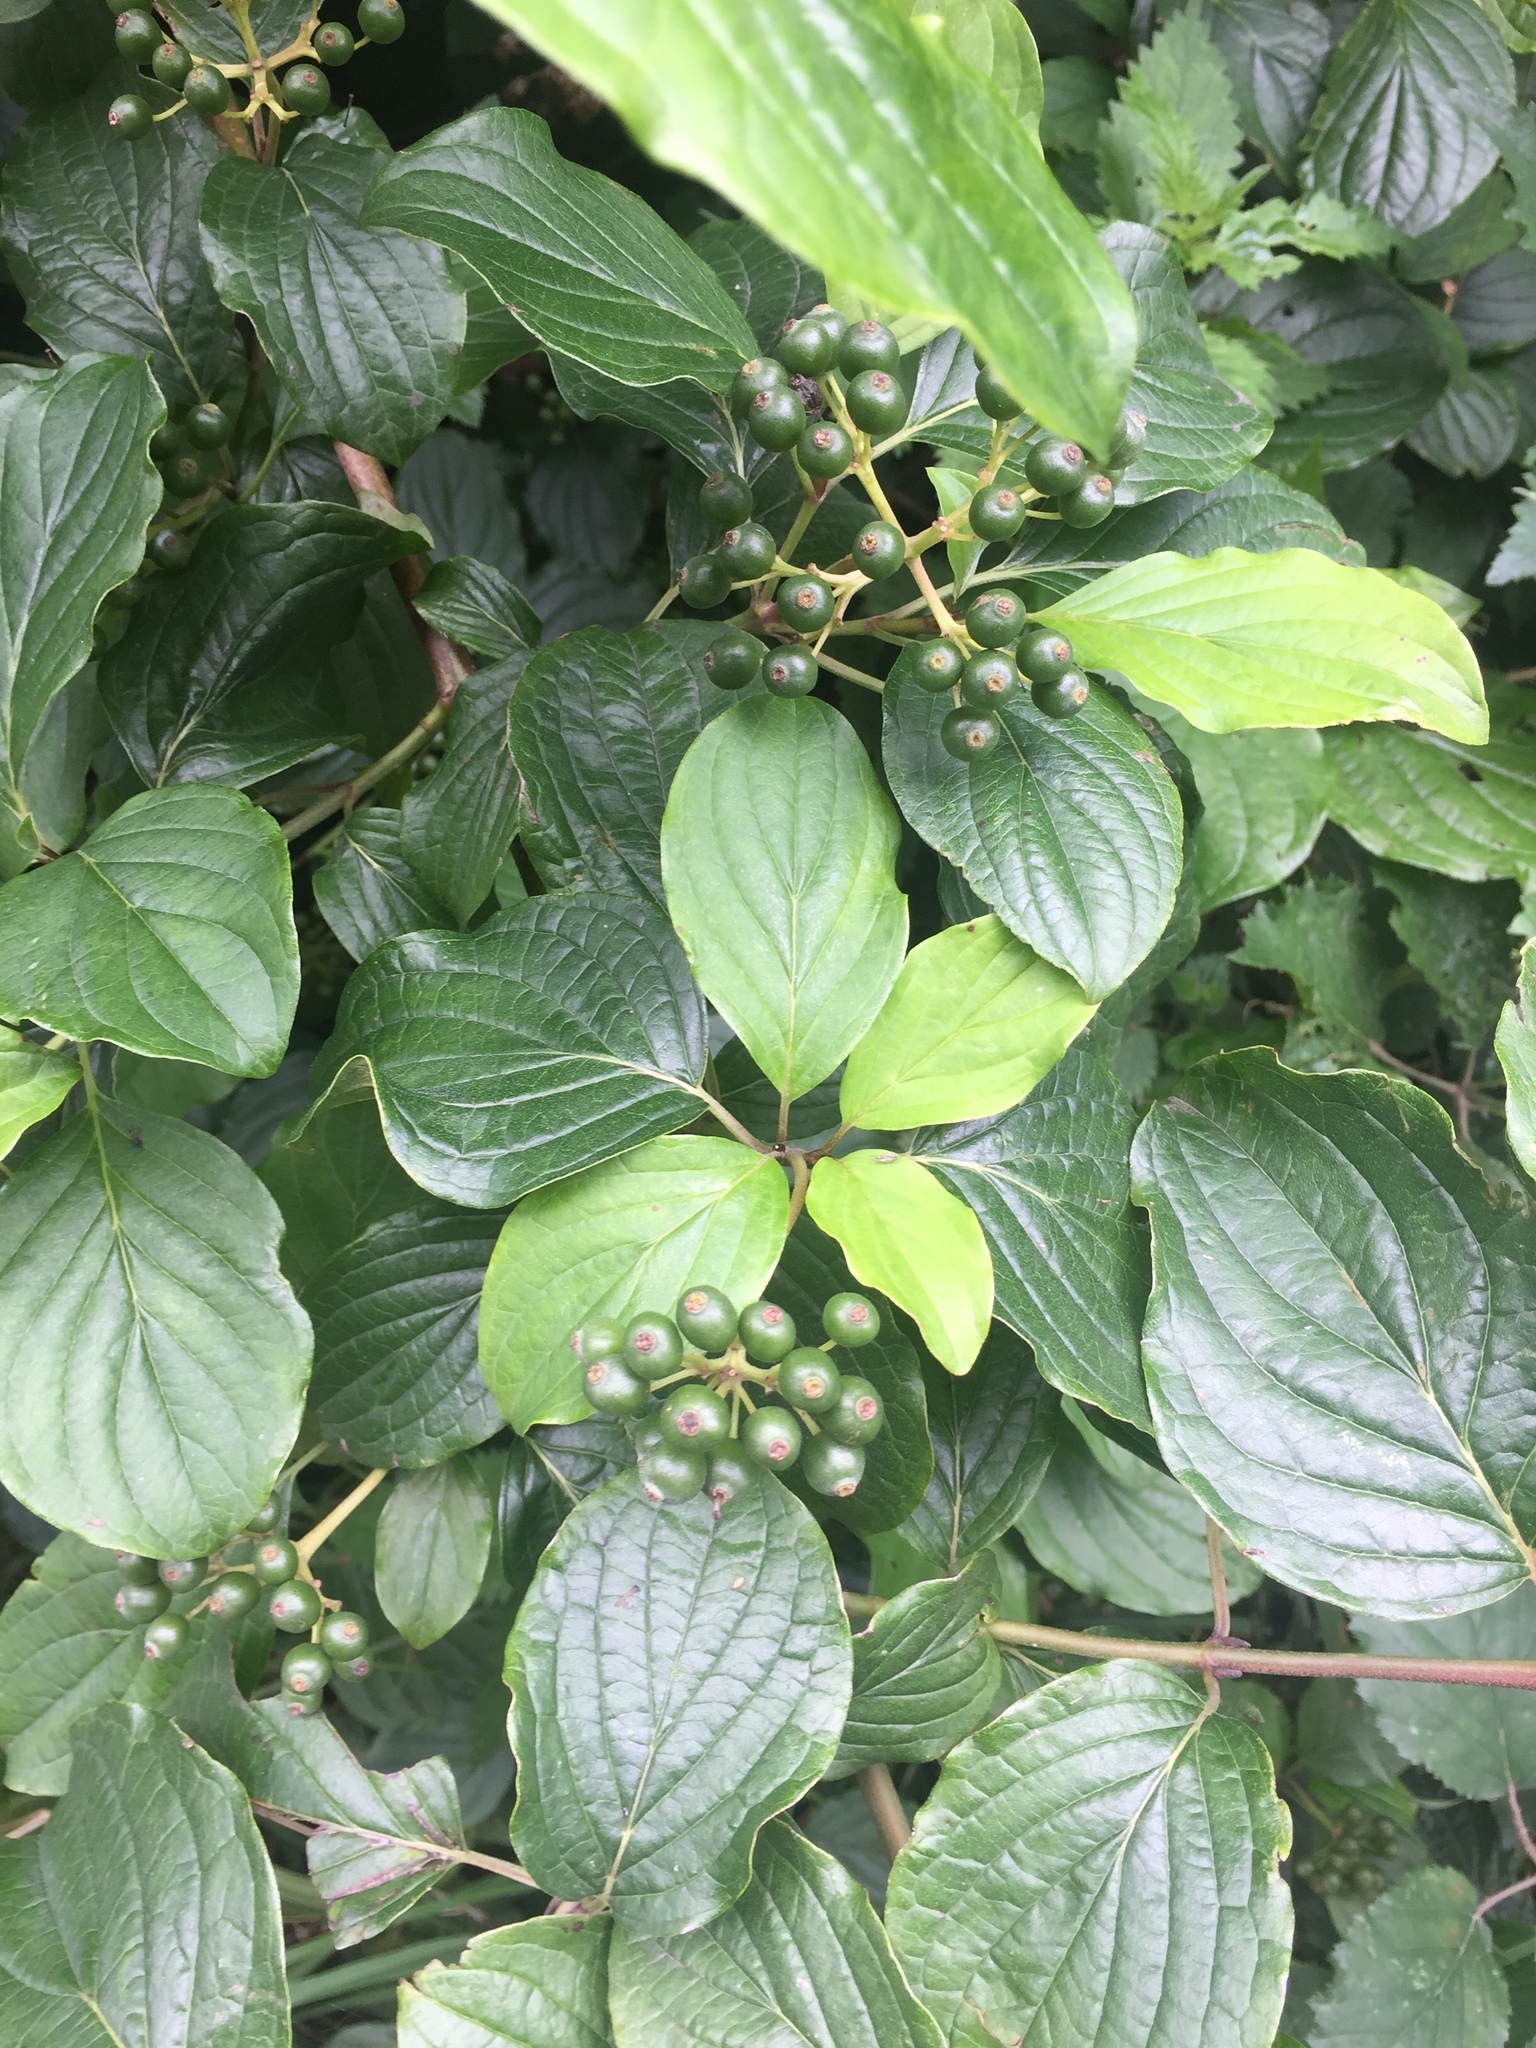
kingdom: Plantae
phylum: Tracheophyta
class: Magnoliopsida
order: Cornales
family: Cornaceae
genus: Cornus
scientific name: Cornus sanguinea
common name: Dogwood
